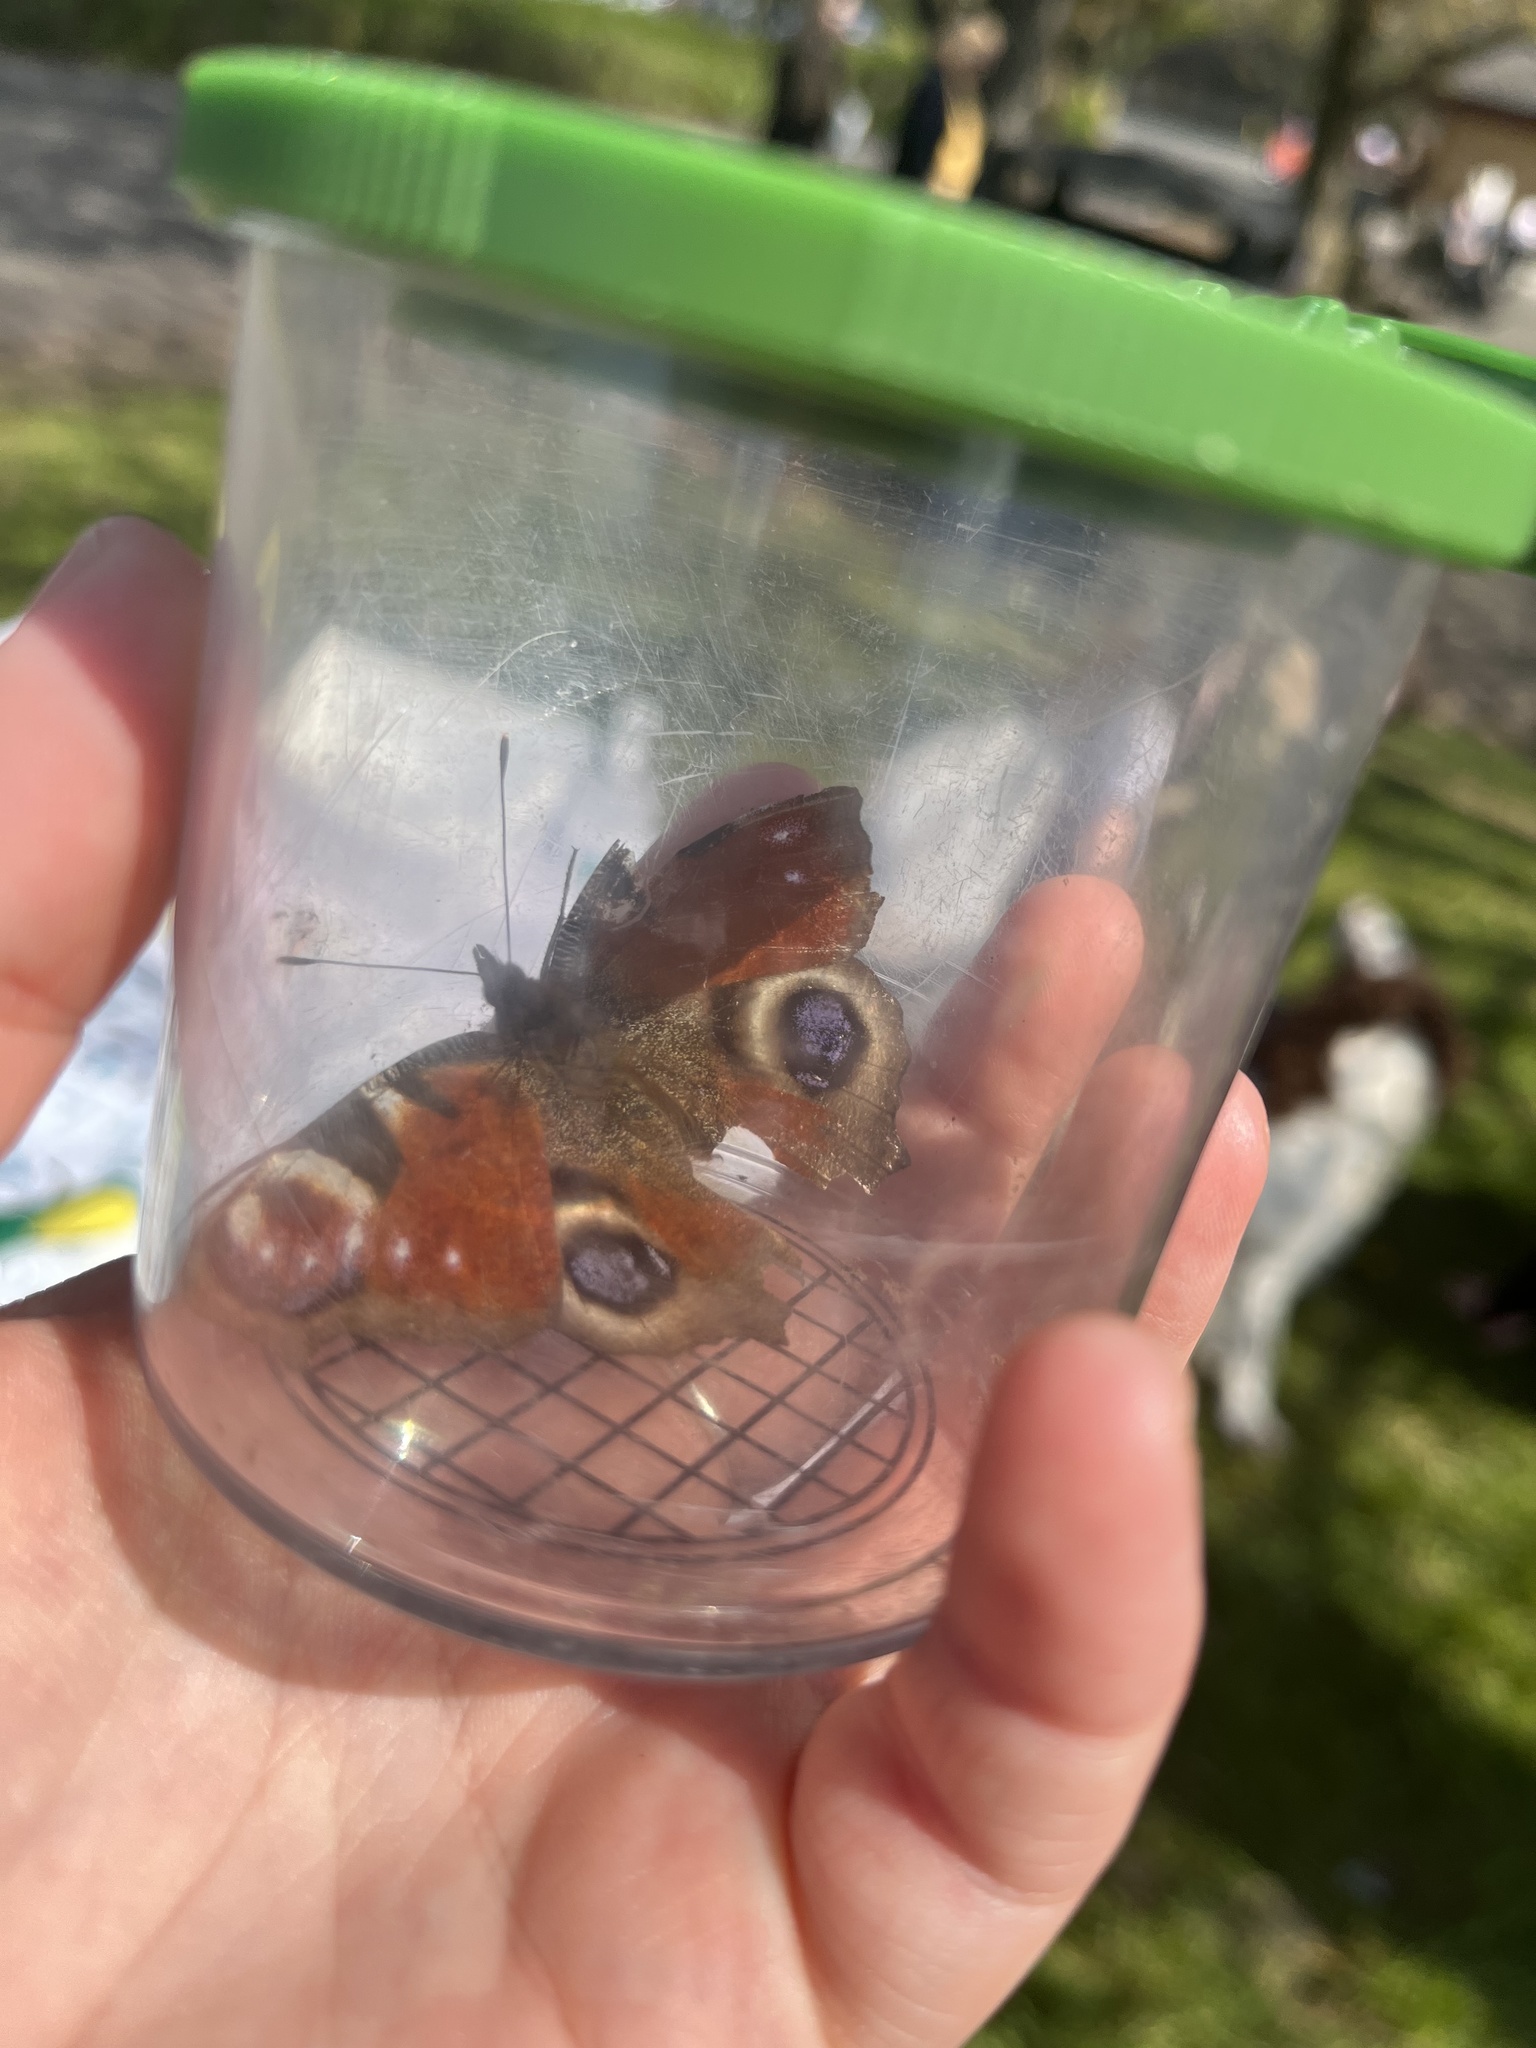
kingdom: Animalia
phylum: Arthropoda
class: Insecta
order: Lepidoptera
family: Nymphalidae
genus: Aglais
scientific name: Aglais io
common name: Peacock
